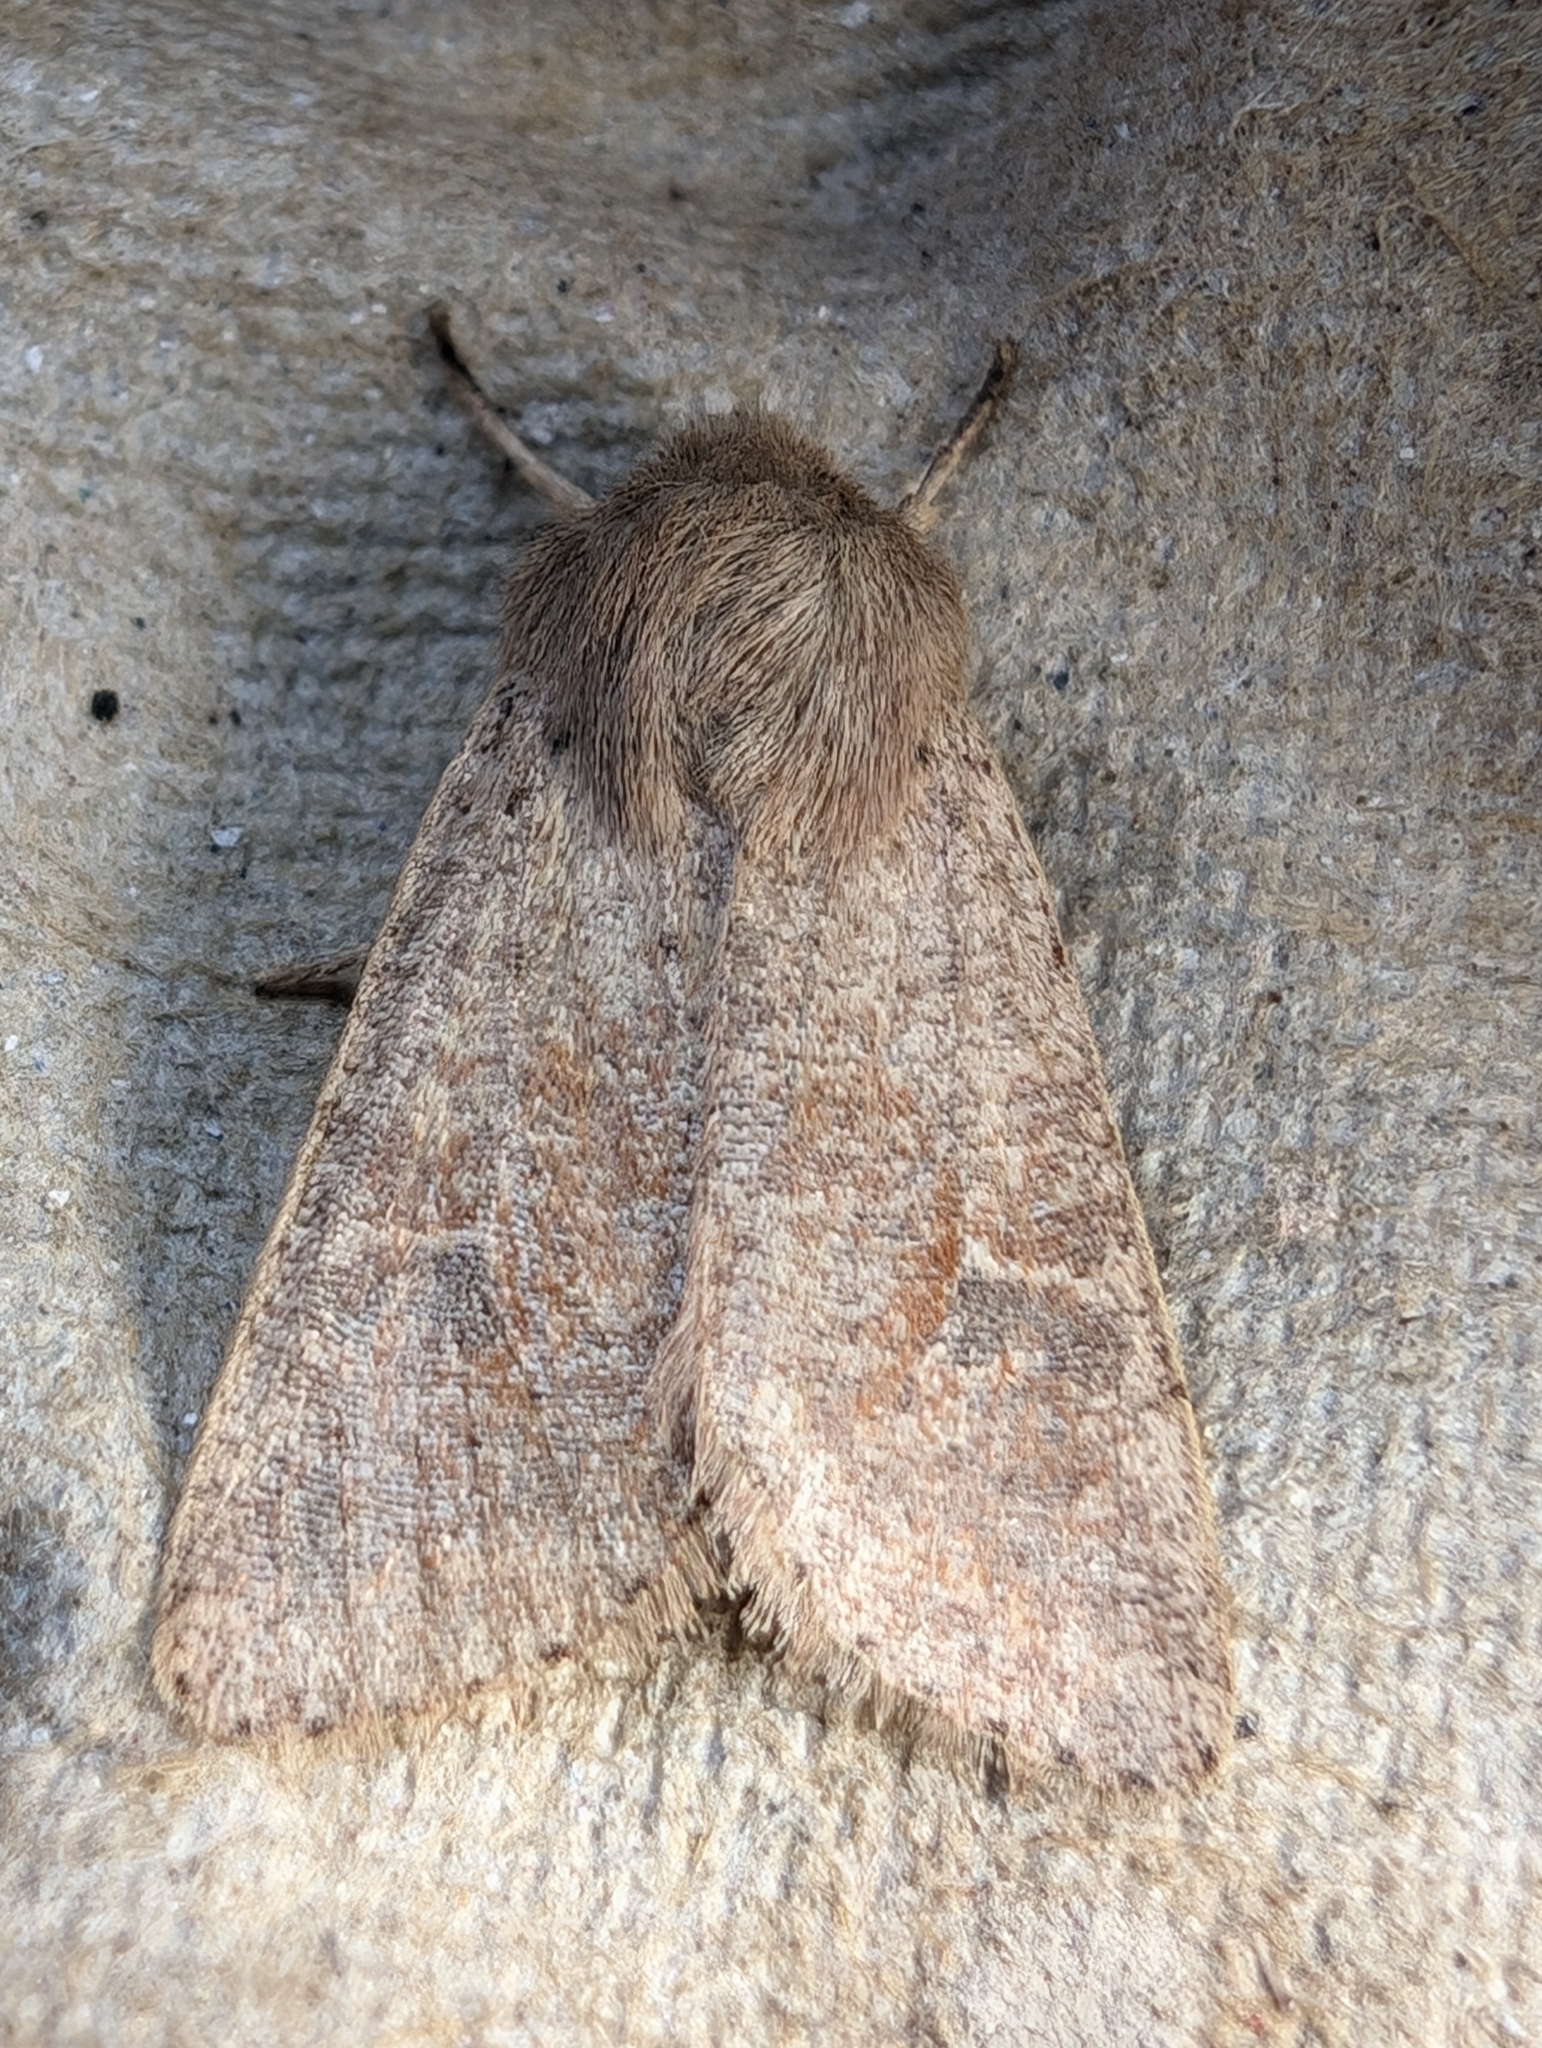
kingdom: Animalia
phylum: Arthropoda
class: Insecta
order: Lepidoptera
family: Noctuidae
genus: Orthosia
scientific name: Orthosia cruda
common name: Small quaker
